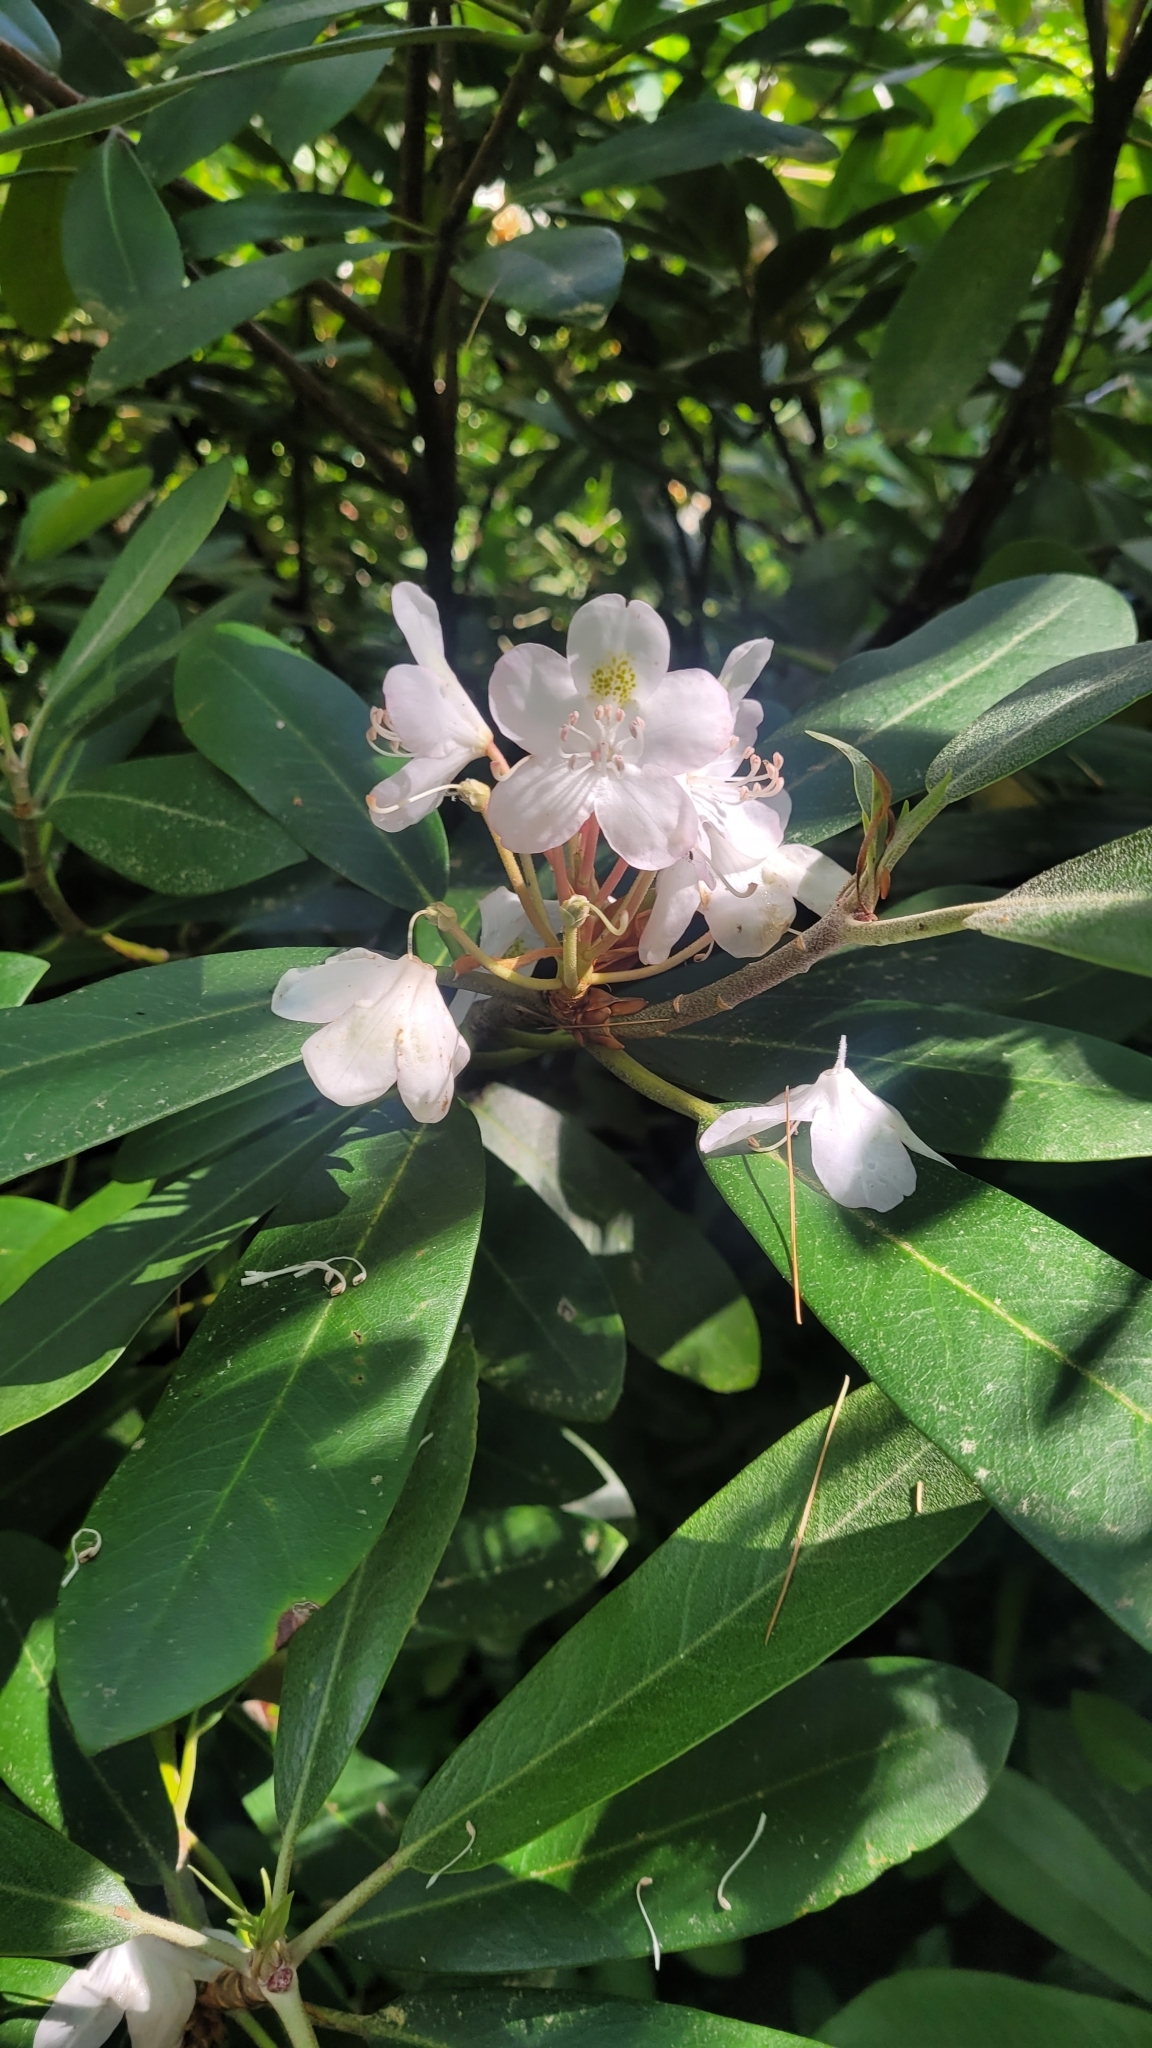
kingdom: Plantae
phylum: Tracheophyta
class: Magnoliopsida
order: Ericales
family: Ericaceae
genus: Rhododendron
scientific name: Rhododendron maximum
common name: Great rhododendron
